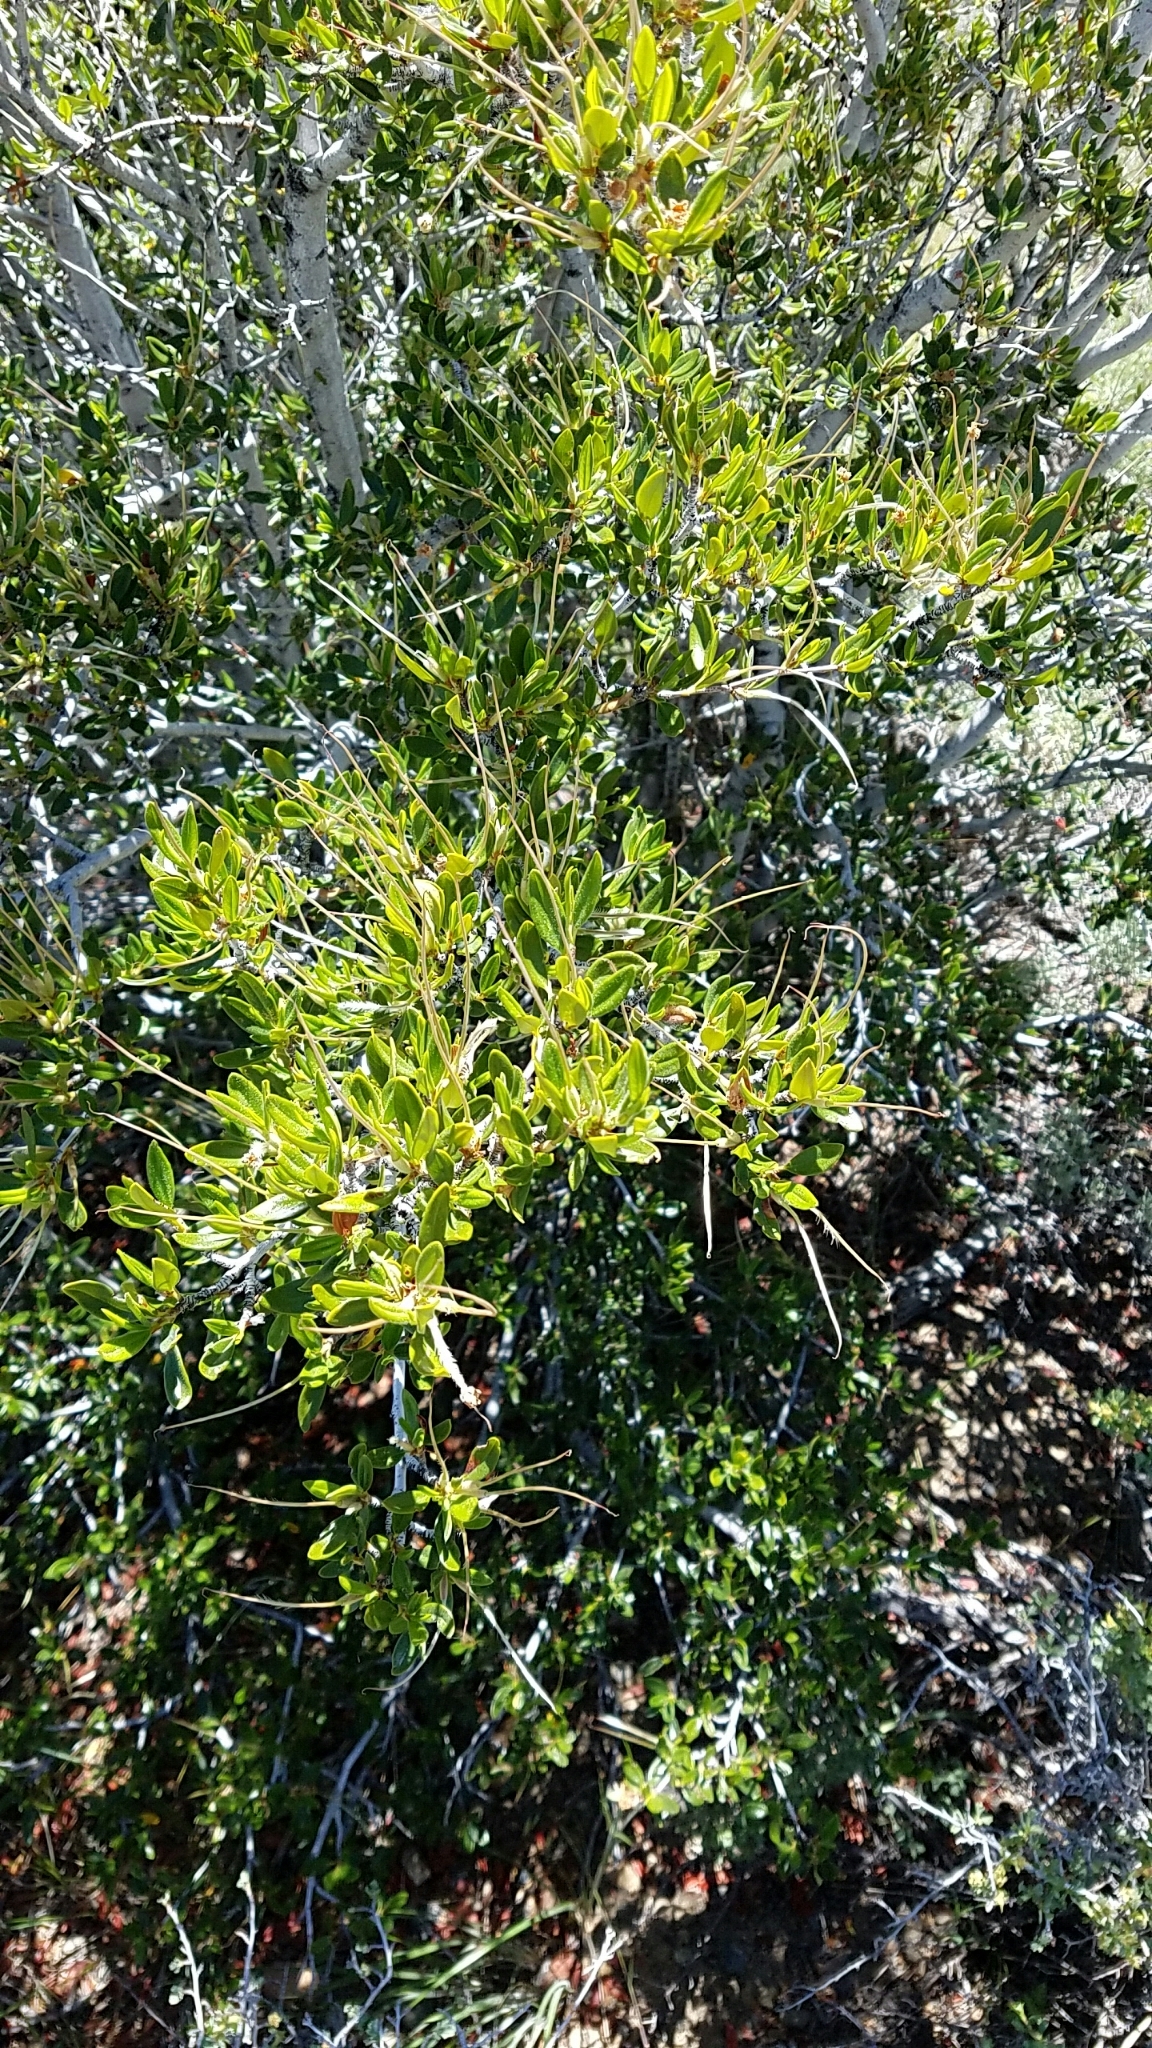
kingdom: Plantae
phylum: Tracheophyta
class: Magnoliopsida
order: Rosales
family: Rosaceae
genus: Cercocarpus
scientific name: Cercocarpus ledifolius
